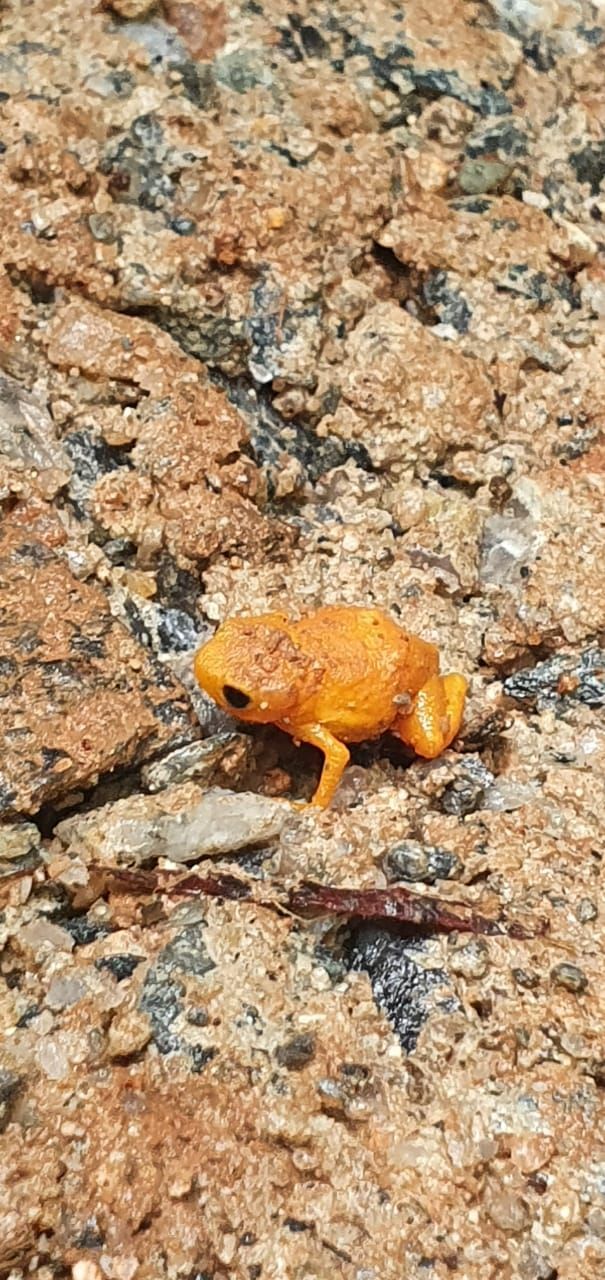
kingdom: Animalia
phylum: Chordata
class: Amphibia
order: Anura
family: Brachycephalidae
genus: Brachycephalus
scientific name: Brachycephalus
